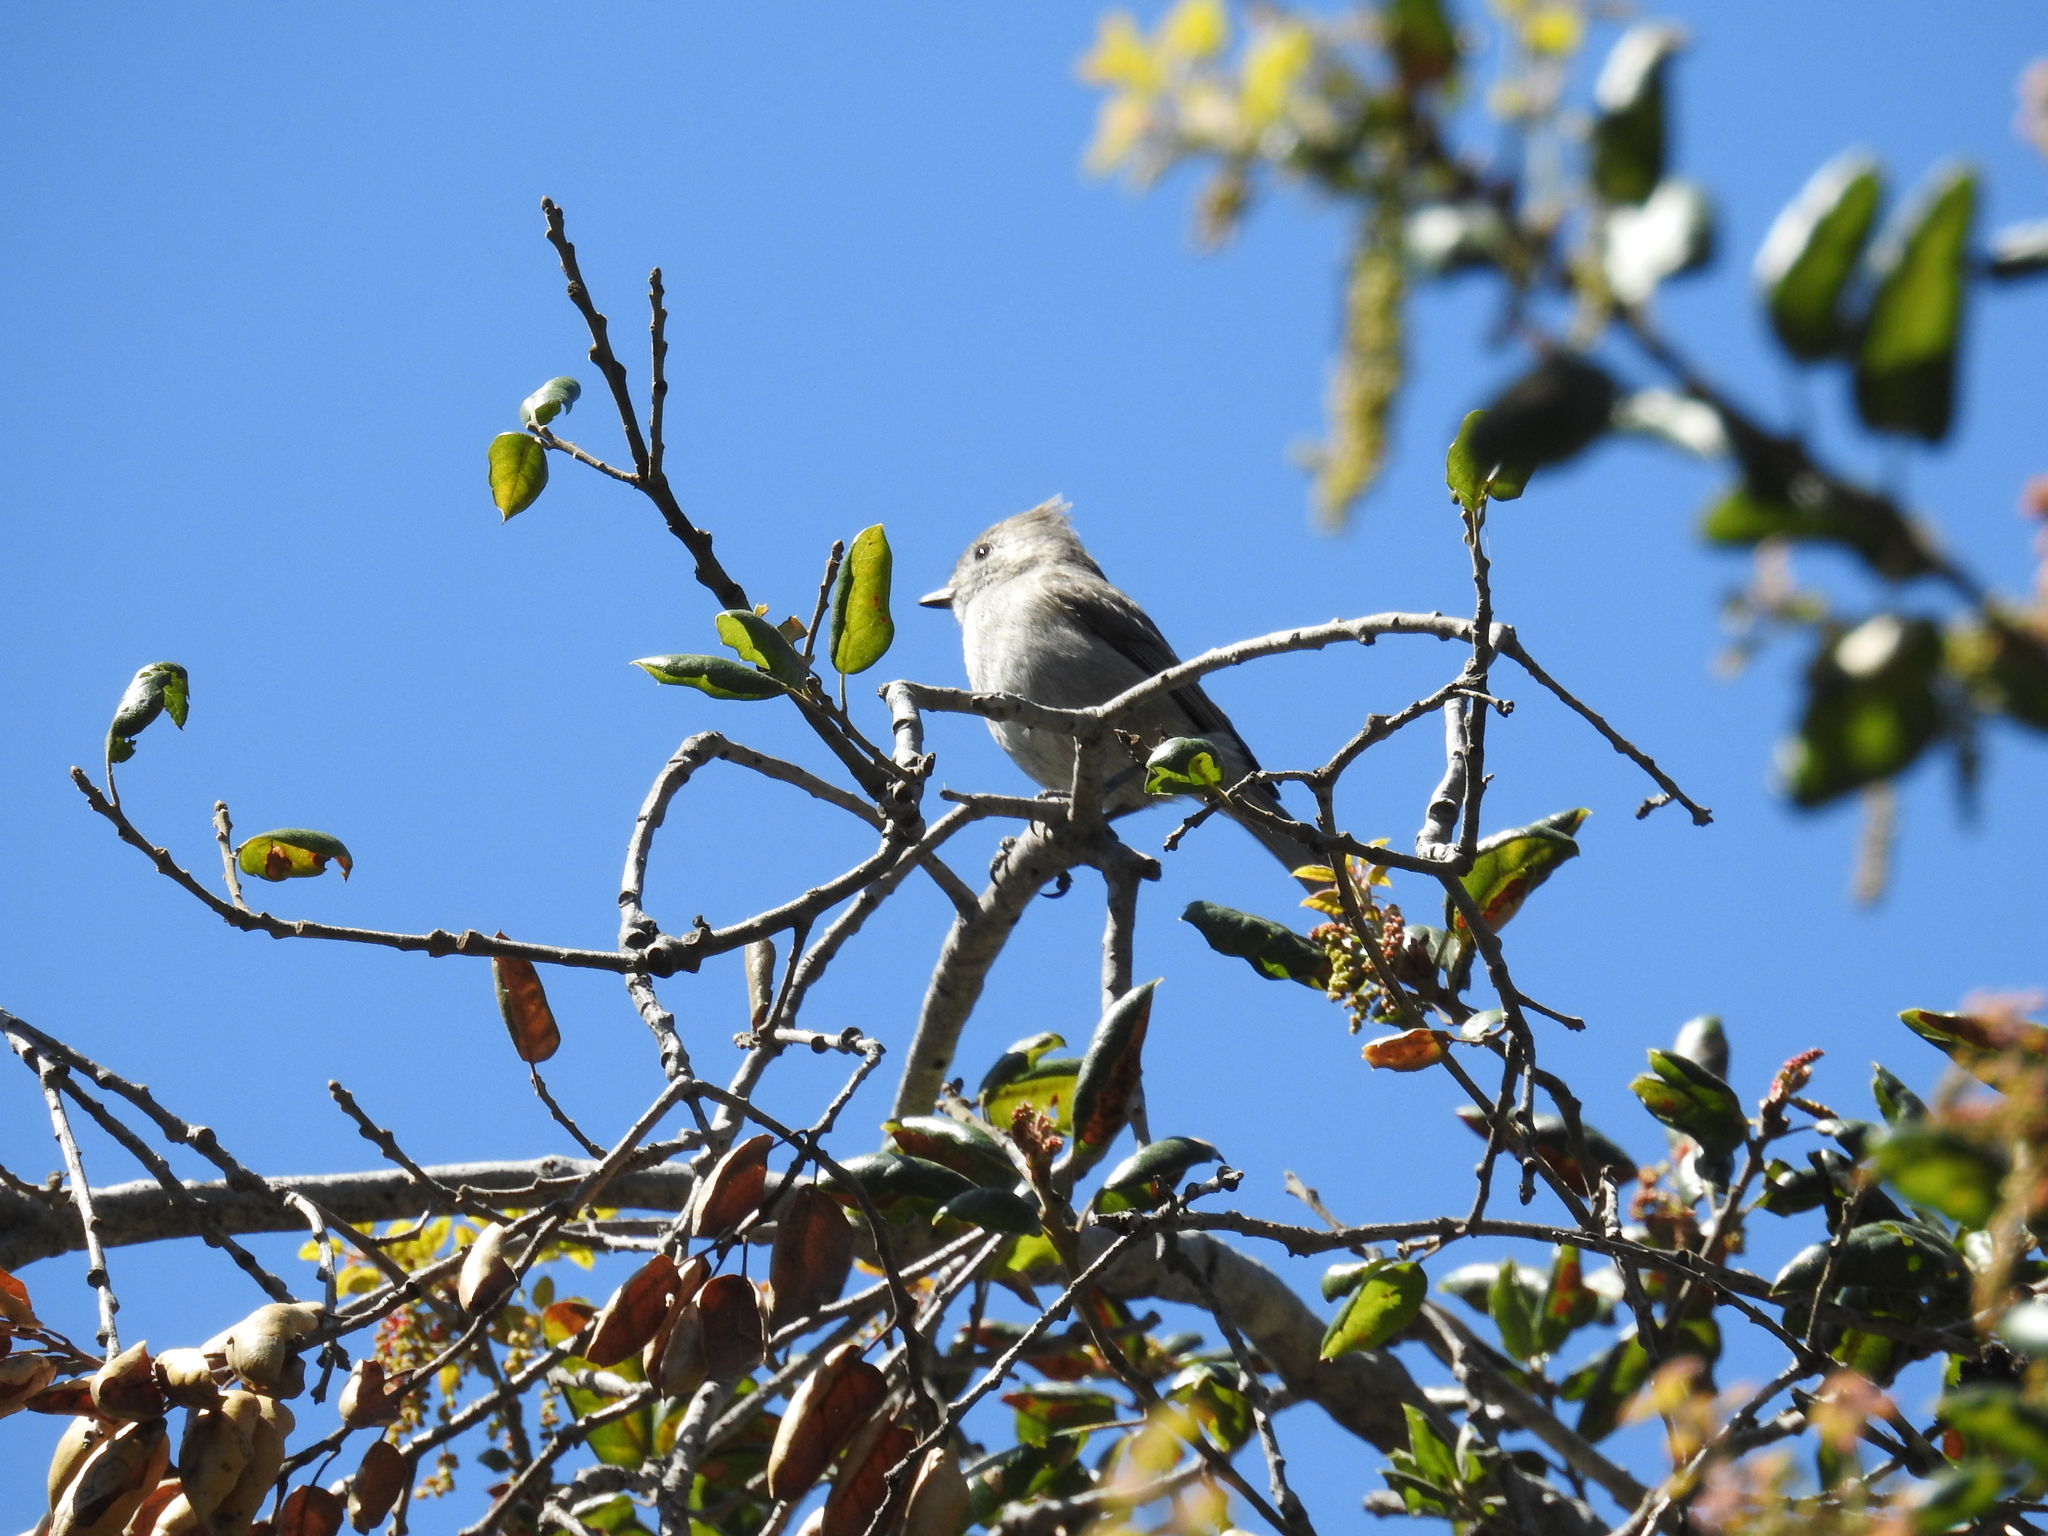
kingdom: Animalia
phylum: Chordata
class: Aves
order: Passeriformes
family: Paridae
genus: Baeolophus
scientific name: Baeolophus inornatus
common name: Oak titmouse
